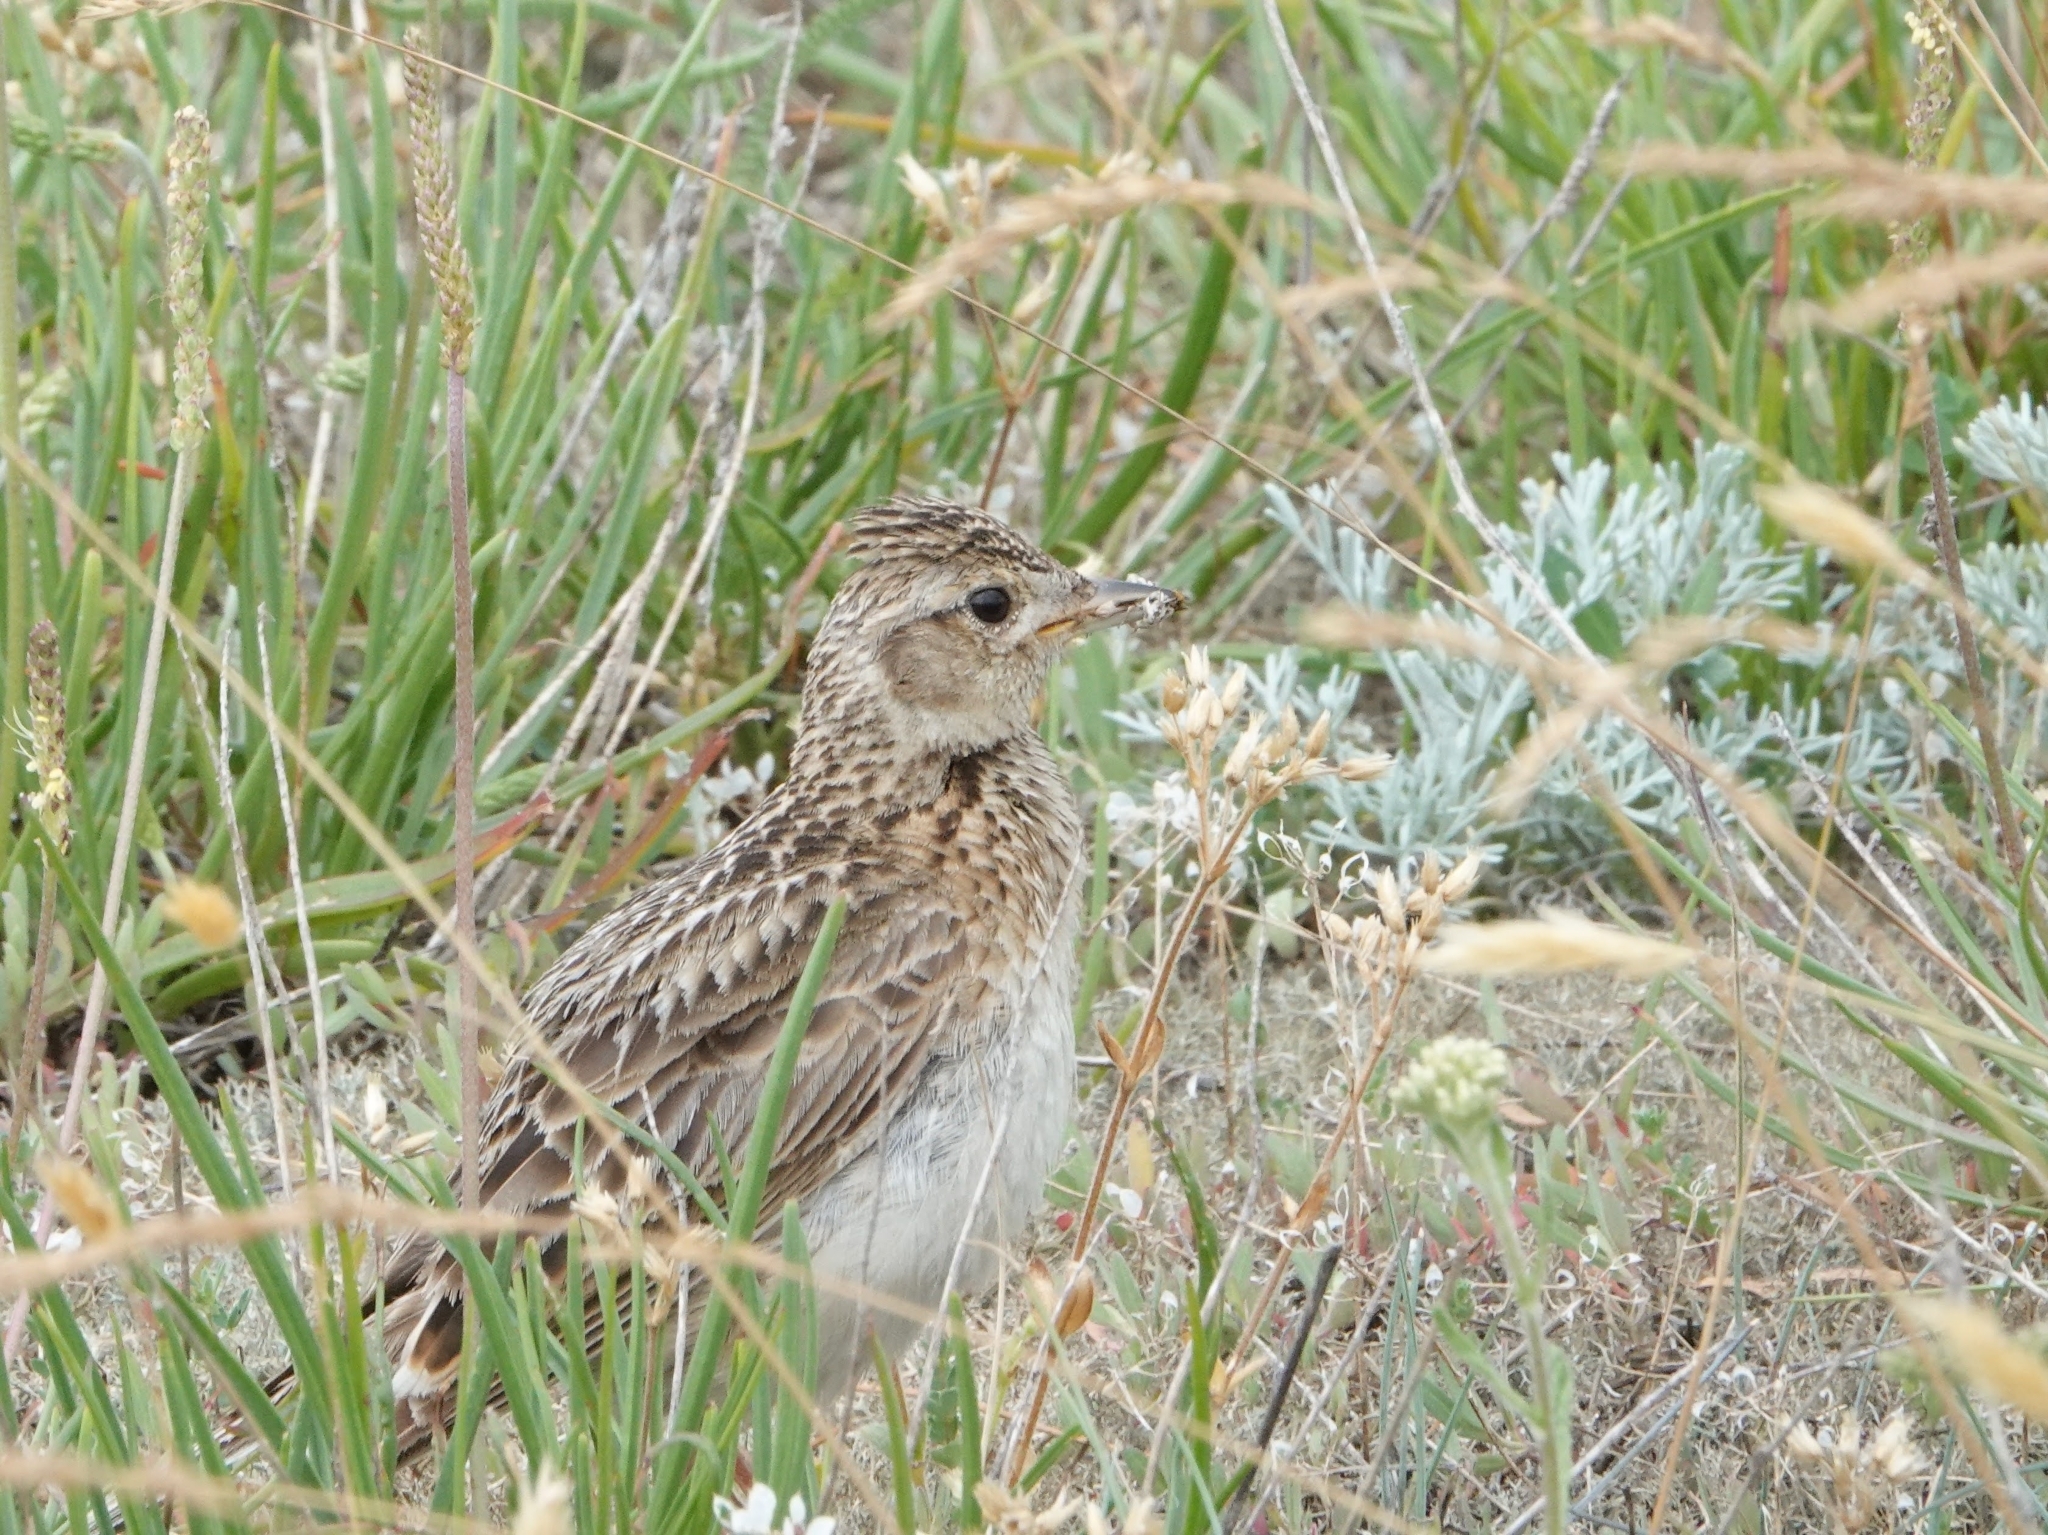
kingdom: Animalia
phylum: Chordata
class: Aves
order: Passeriformes
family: Alaudidae
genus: Alauda
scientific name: Alauda arvensis
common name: Eurasian skylark
